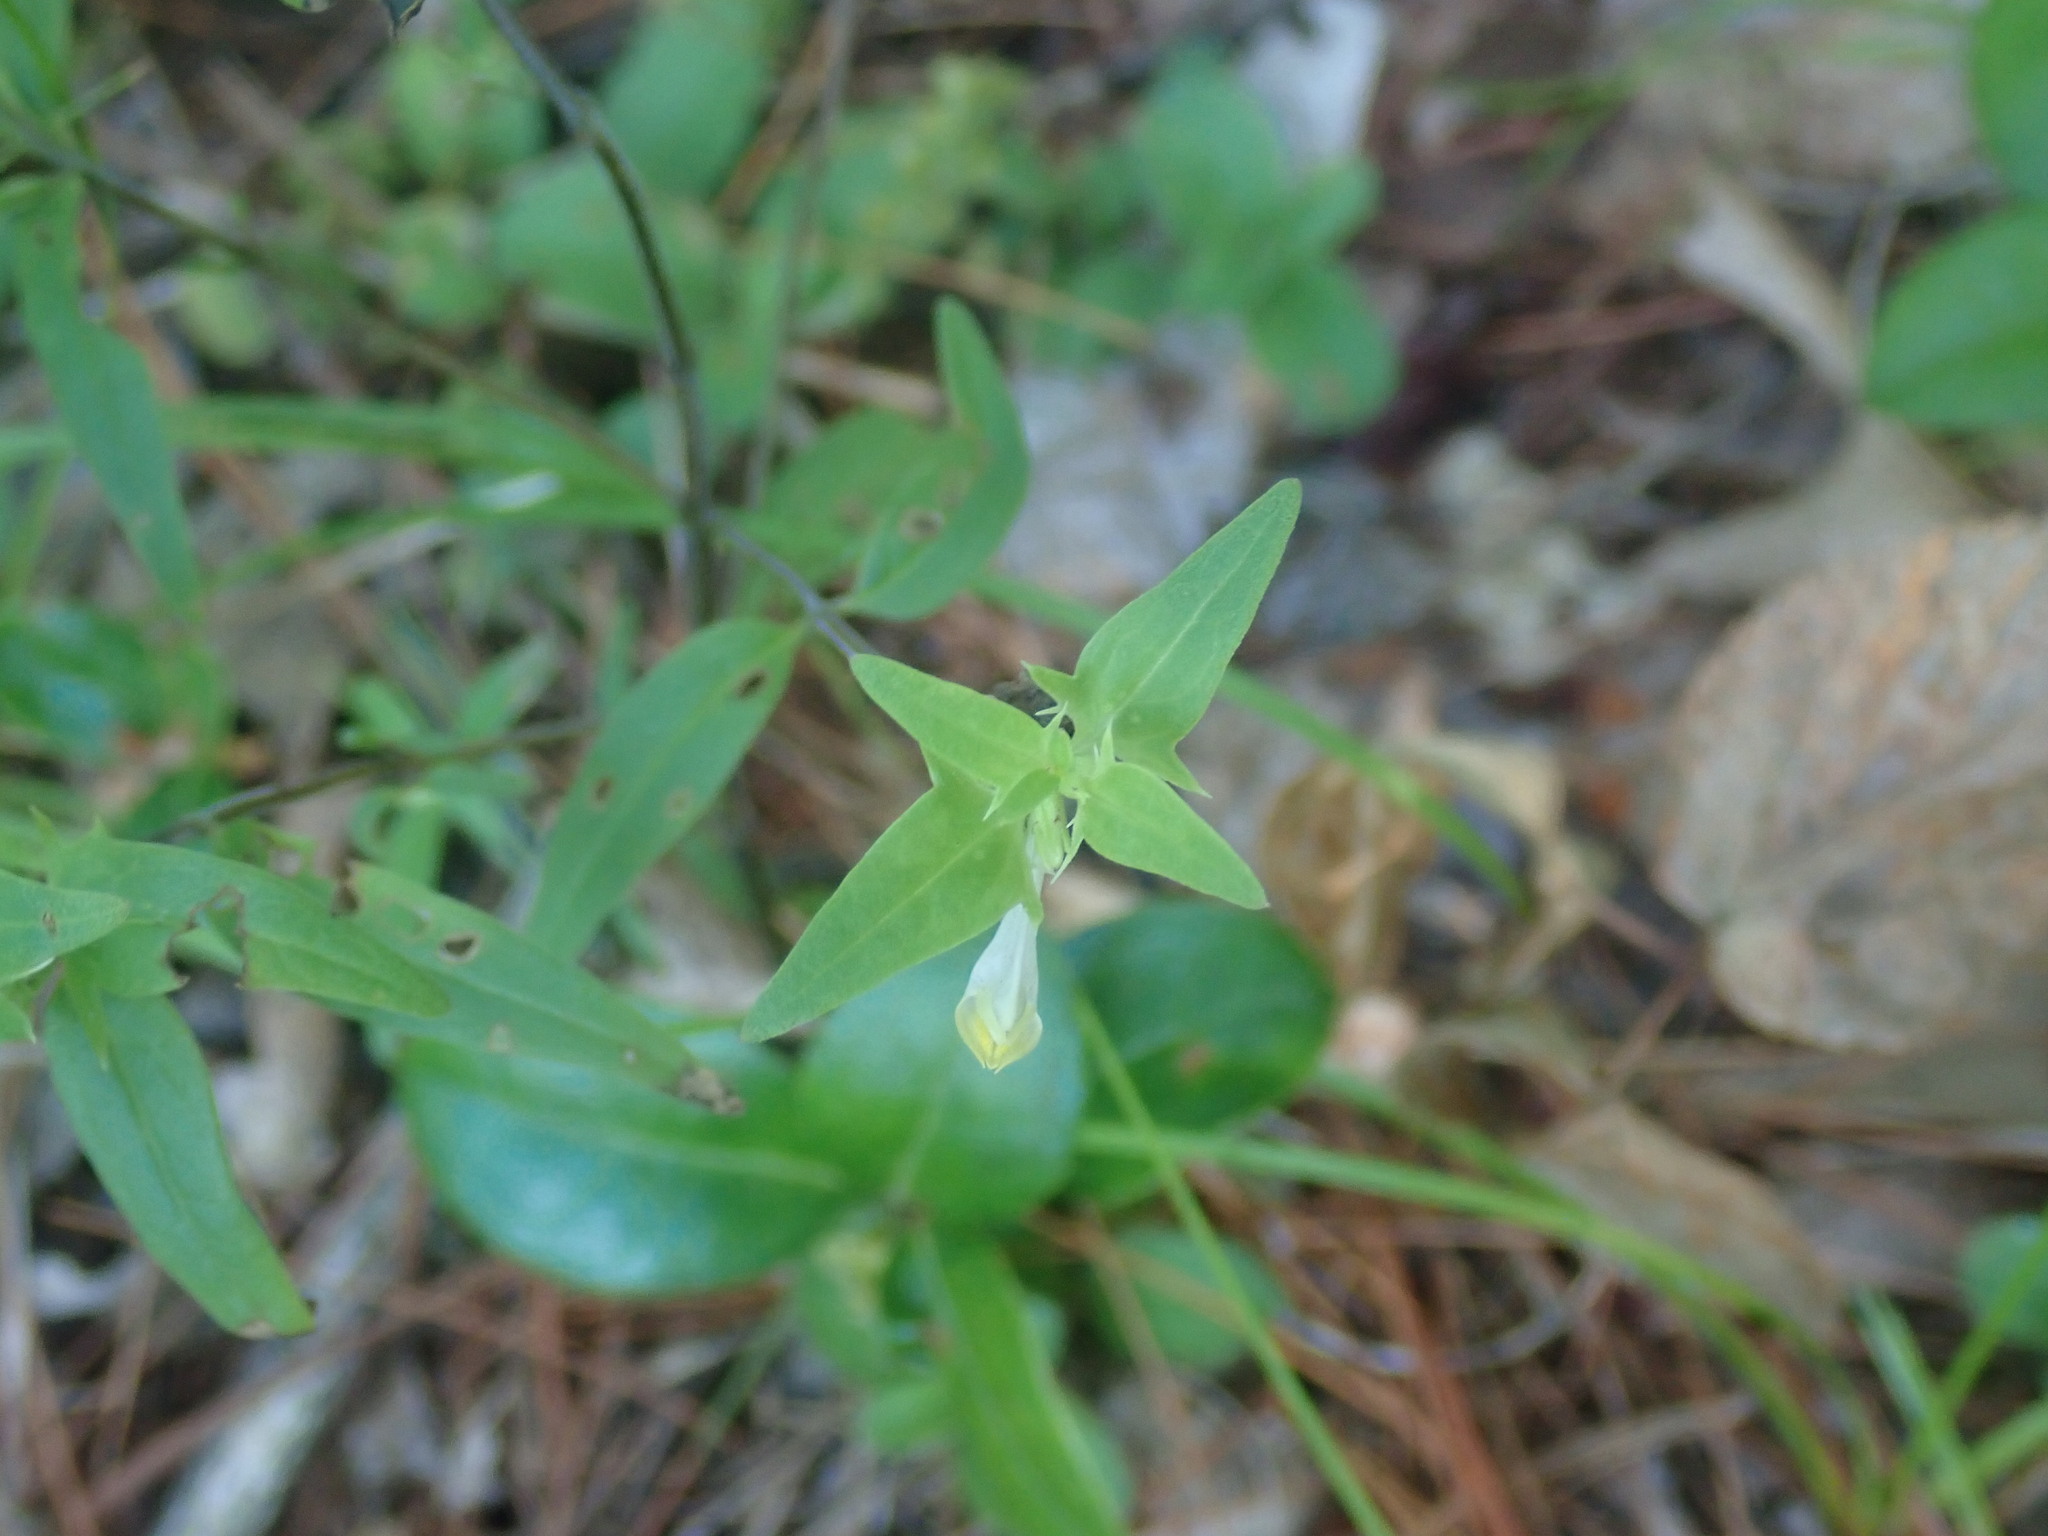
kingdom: Plantae
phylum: Tracheophyta
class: Magnoliopsida
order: Lamiales
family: Orobanchaceae
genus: Melampyrum
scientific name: Melampyrum lineare
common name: American cow-wheat
